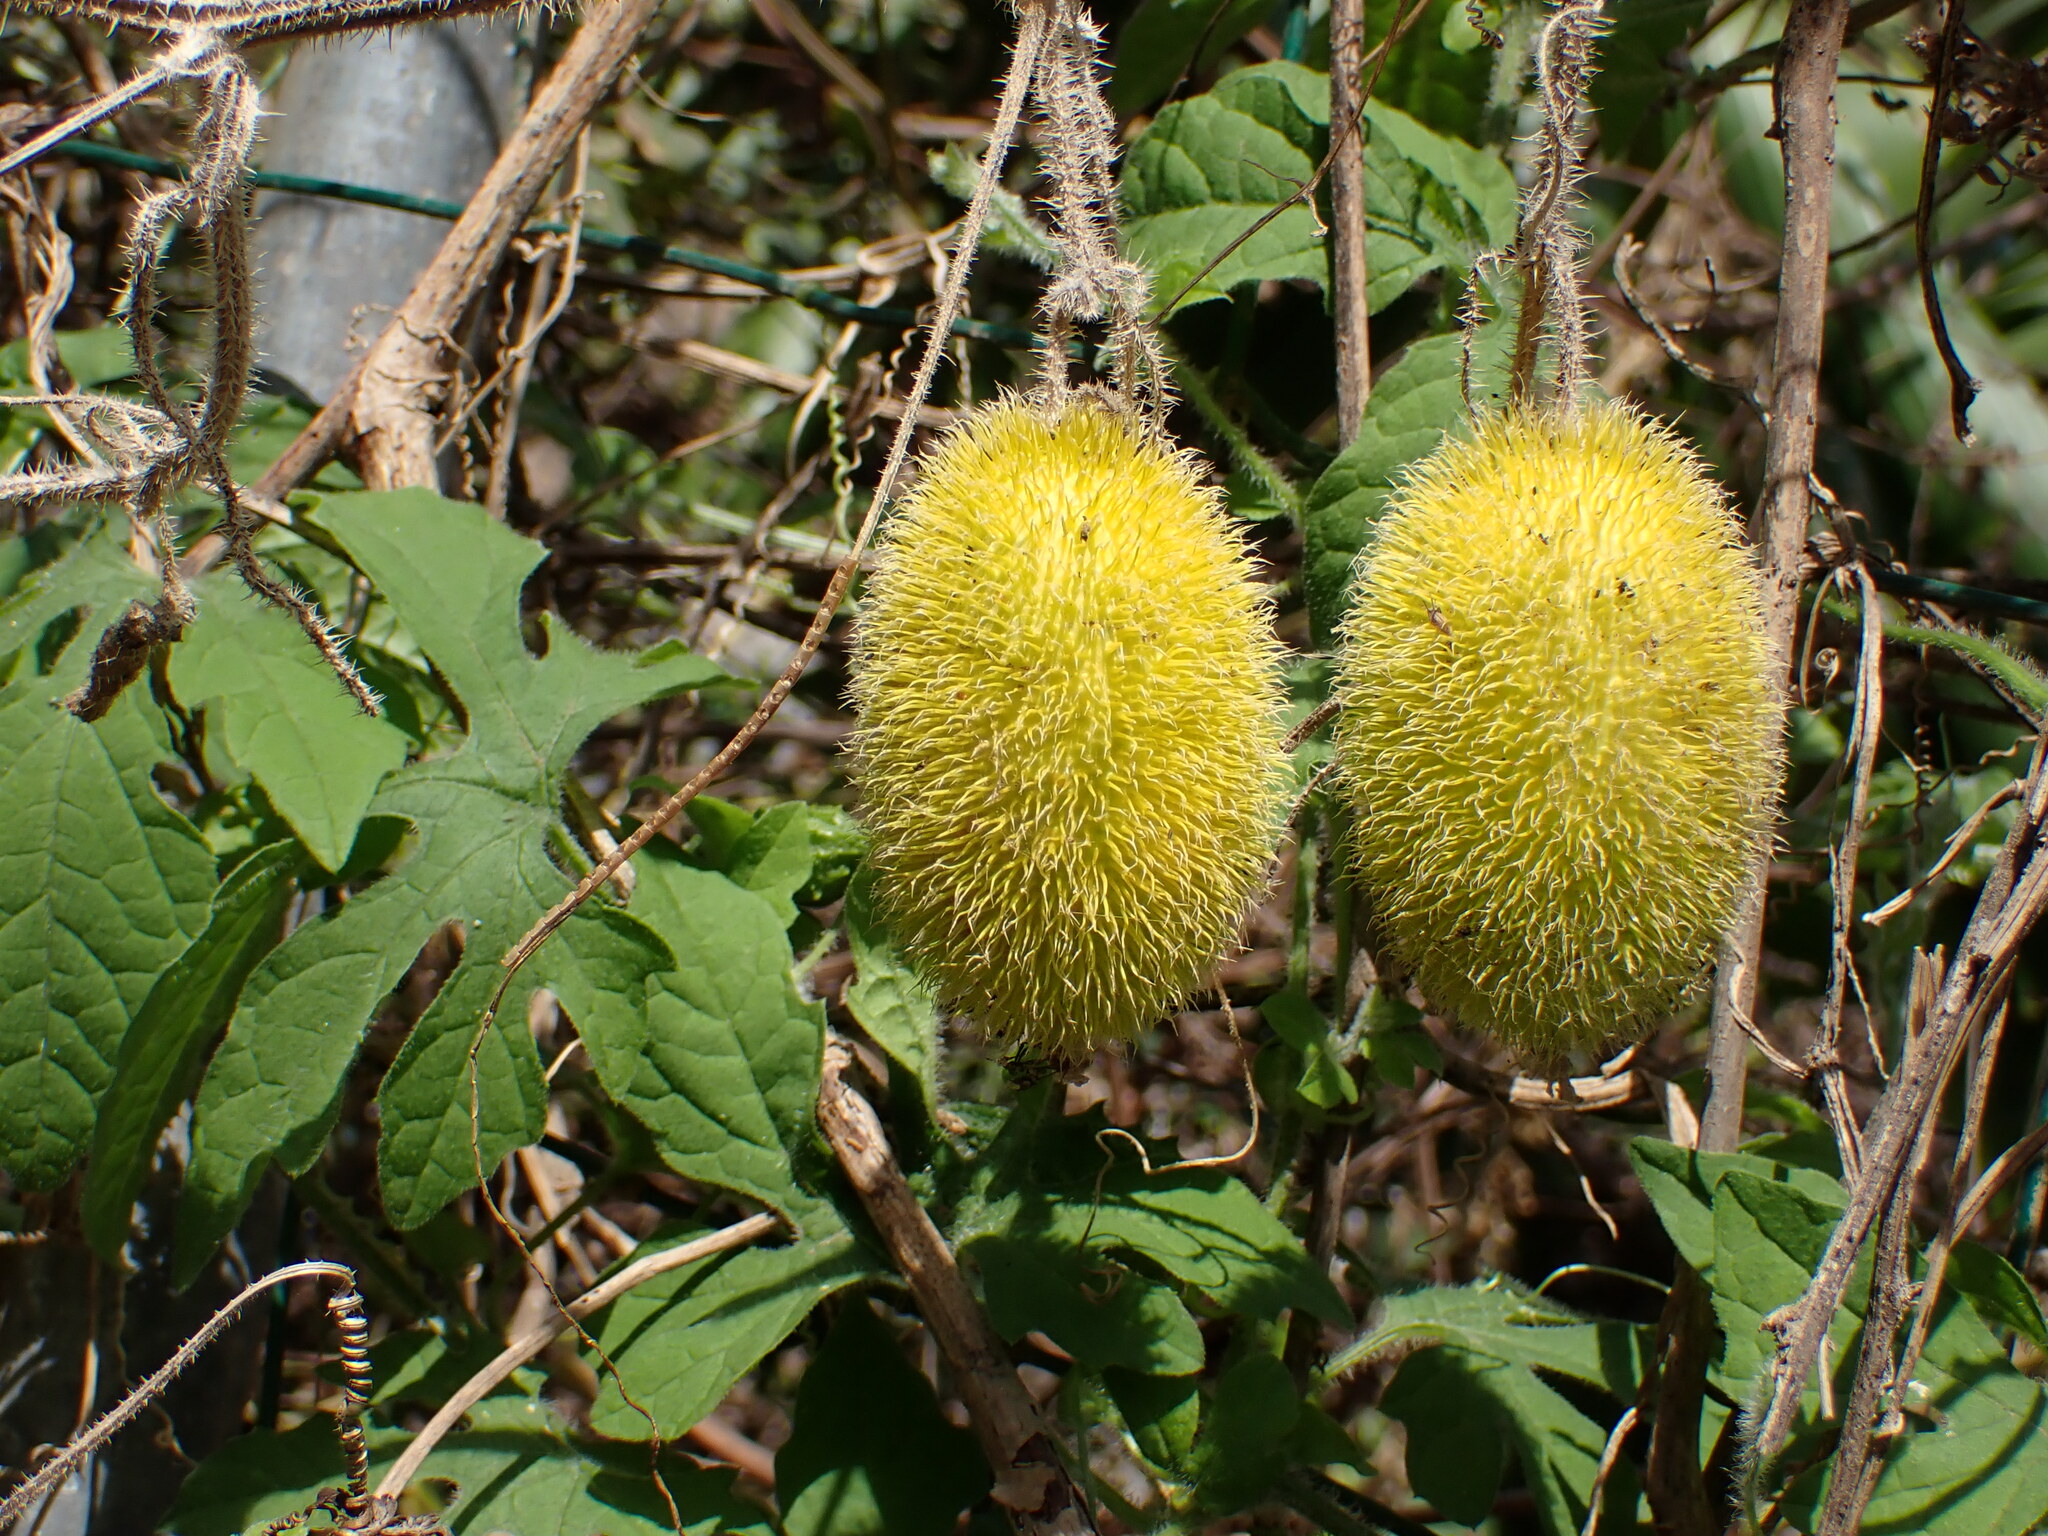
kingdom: Plantae
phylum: Tracheophyta
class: Magnoliopsida
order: Cucurbitales
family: Cucurbitaceae
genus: Cucumis
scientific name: Cucumis dipsaceus
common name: Hedgehog gourd
